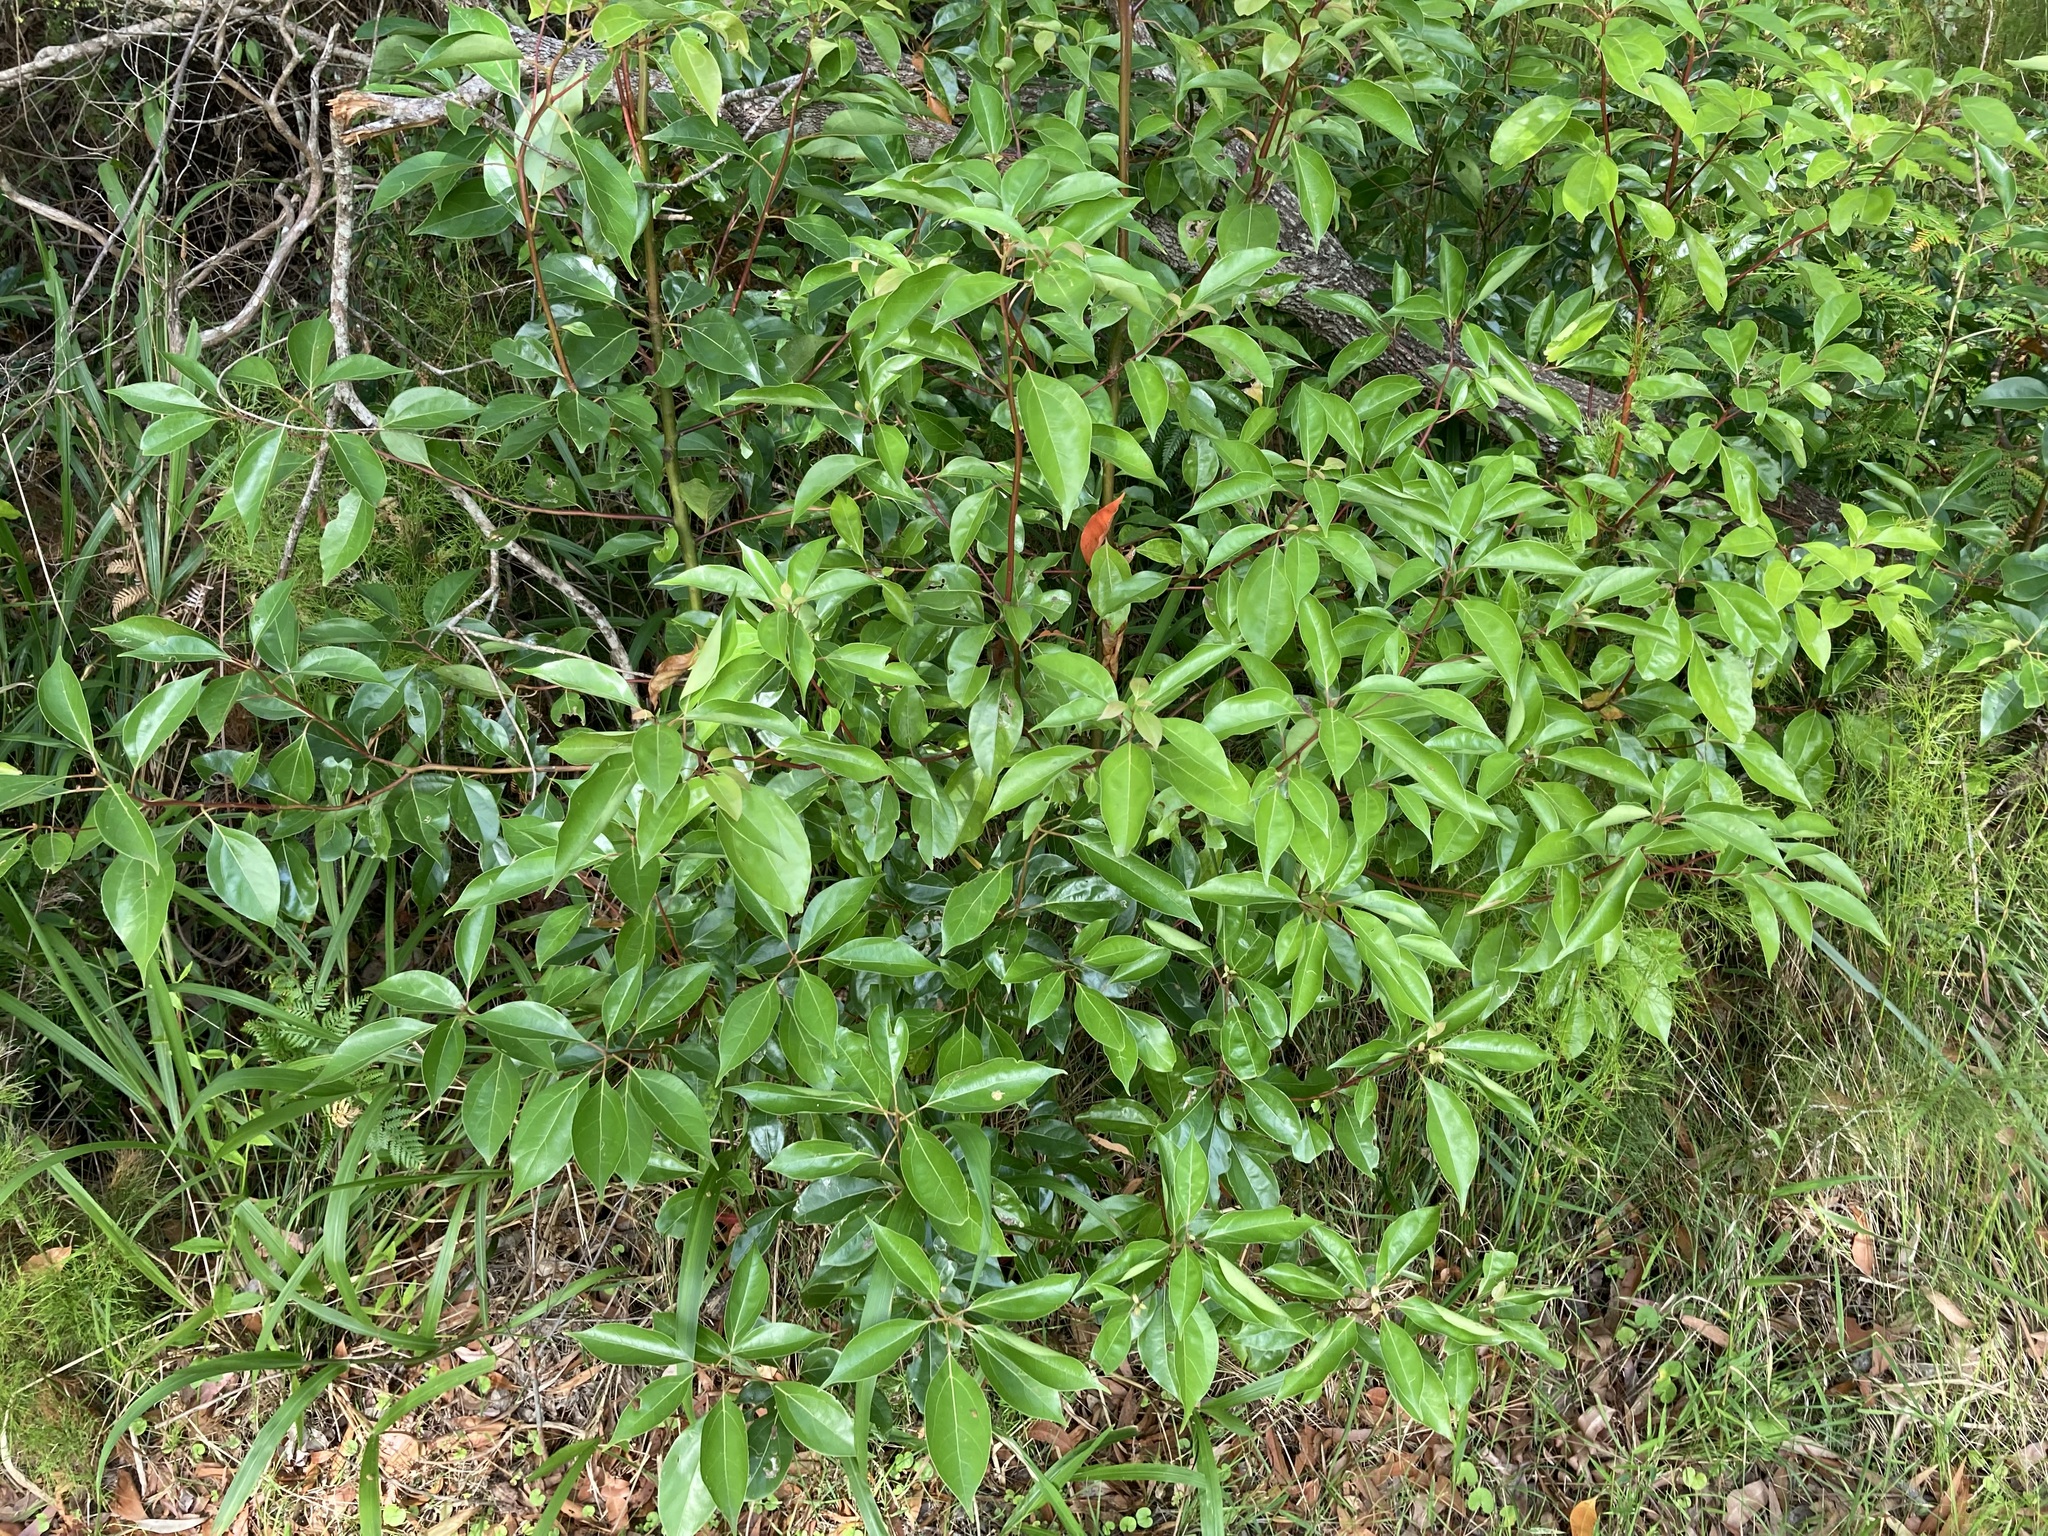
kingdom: Plantae
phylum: Tracheophyta
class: Magnoliopsida
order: Laurales
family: Lauraceae
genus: Cinnamomum
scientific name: Cinnamomum camphora
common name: Camphortree
